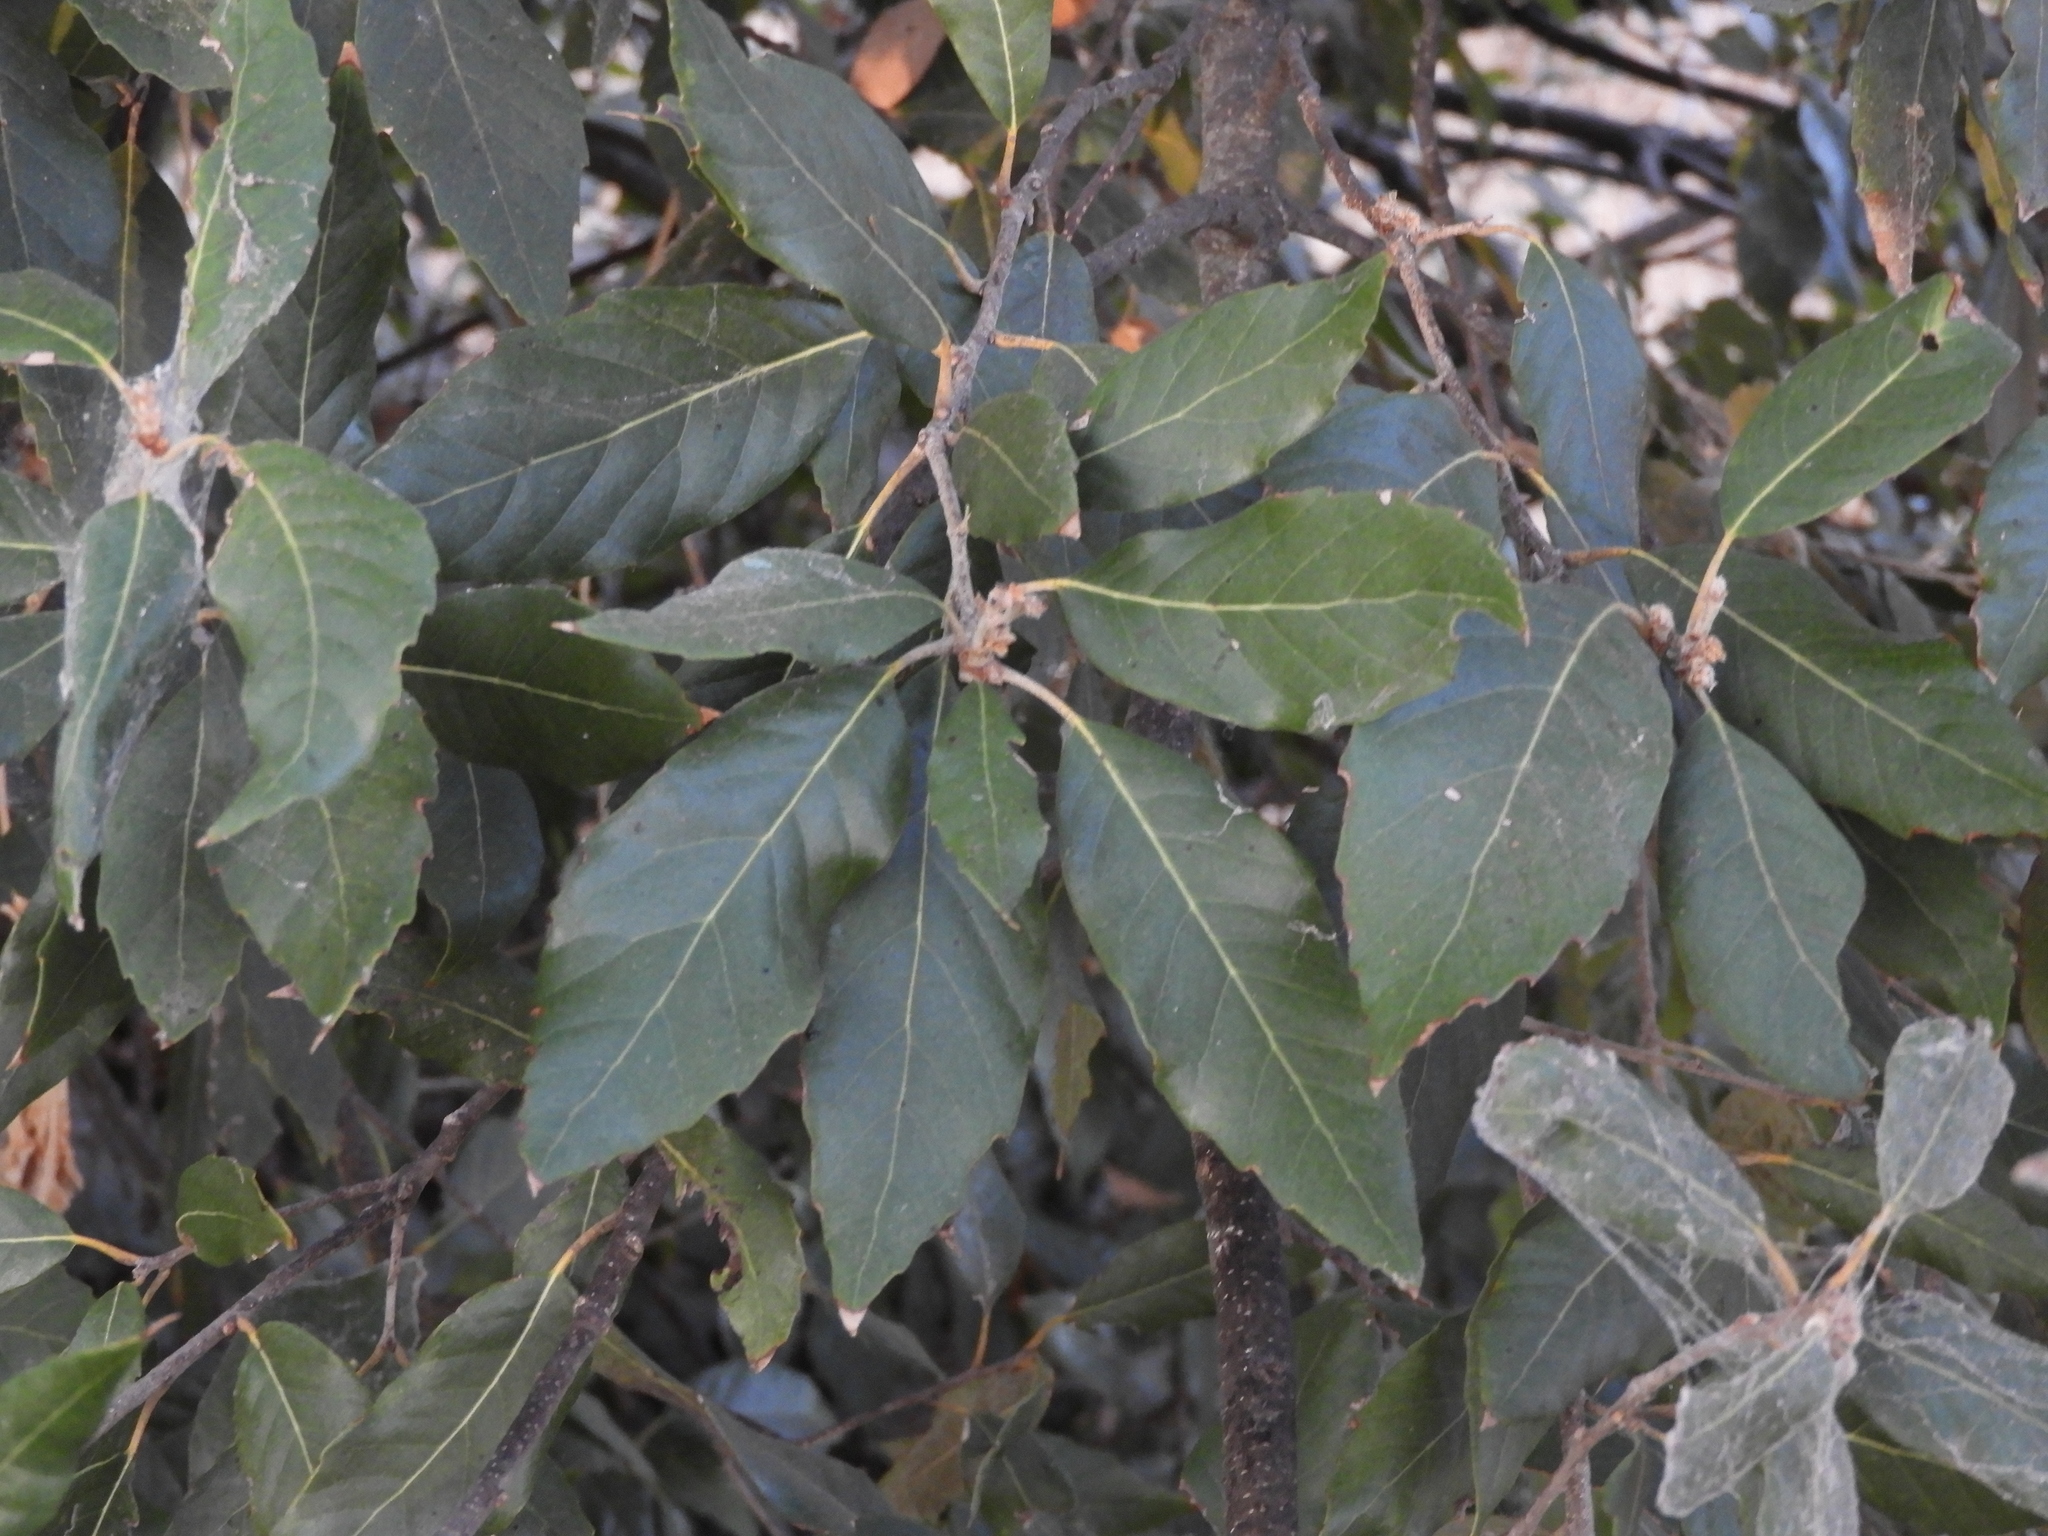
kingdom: Plantae
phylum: Tracheophyta
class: Magnoliopsida
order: Fagales
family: Fagaceae
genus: Quercus
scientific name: Quercus ilex
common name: Evergreen oak
